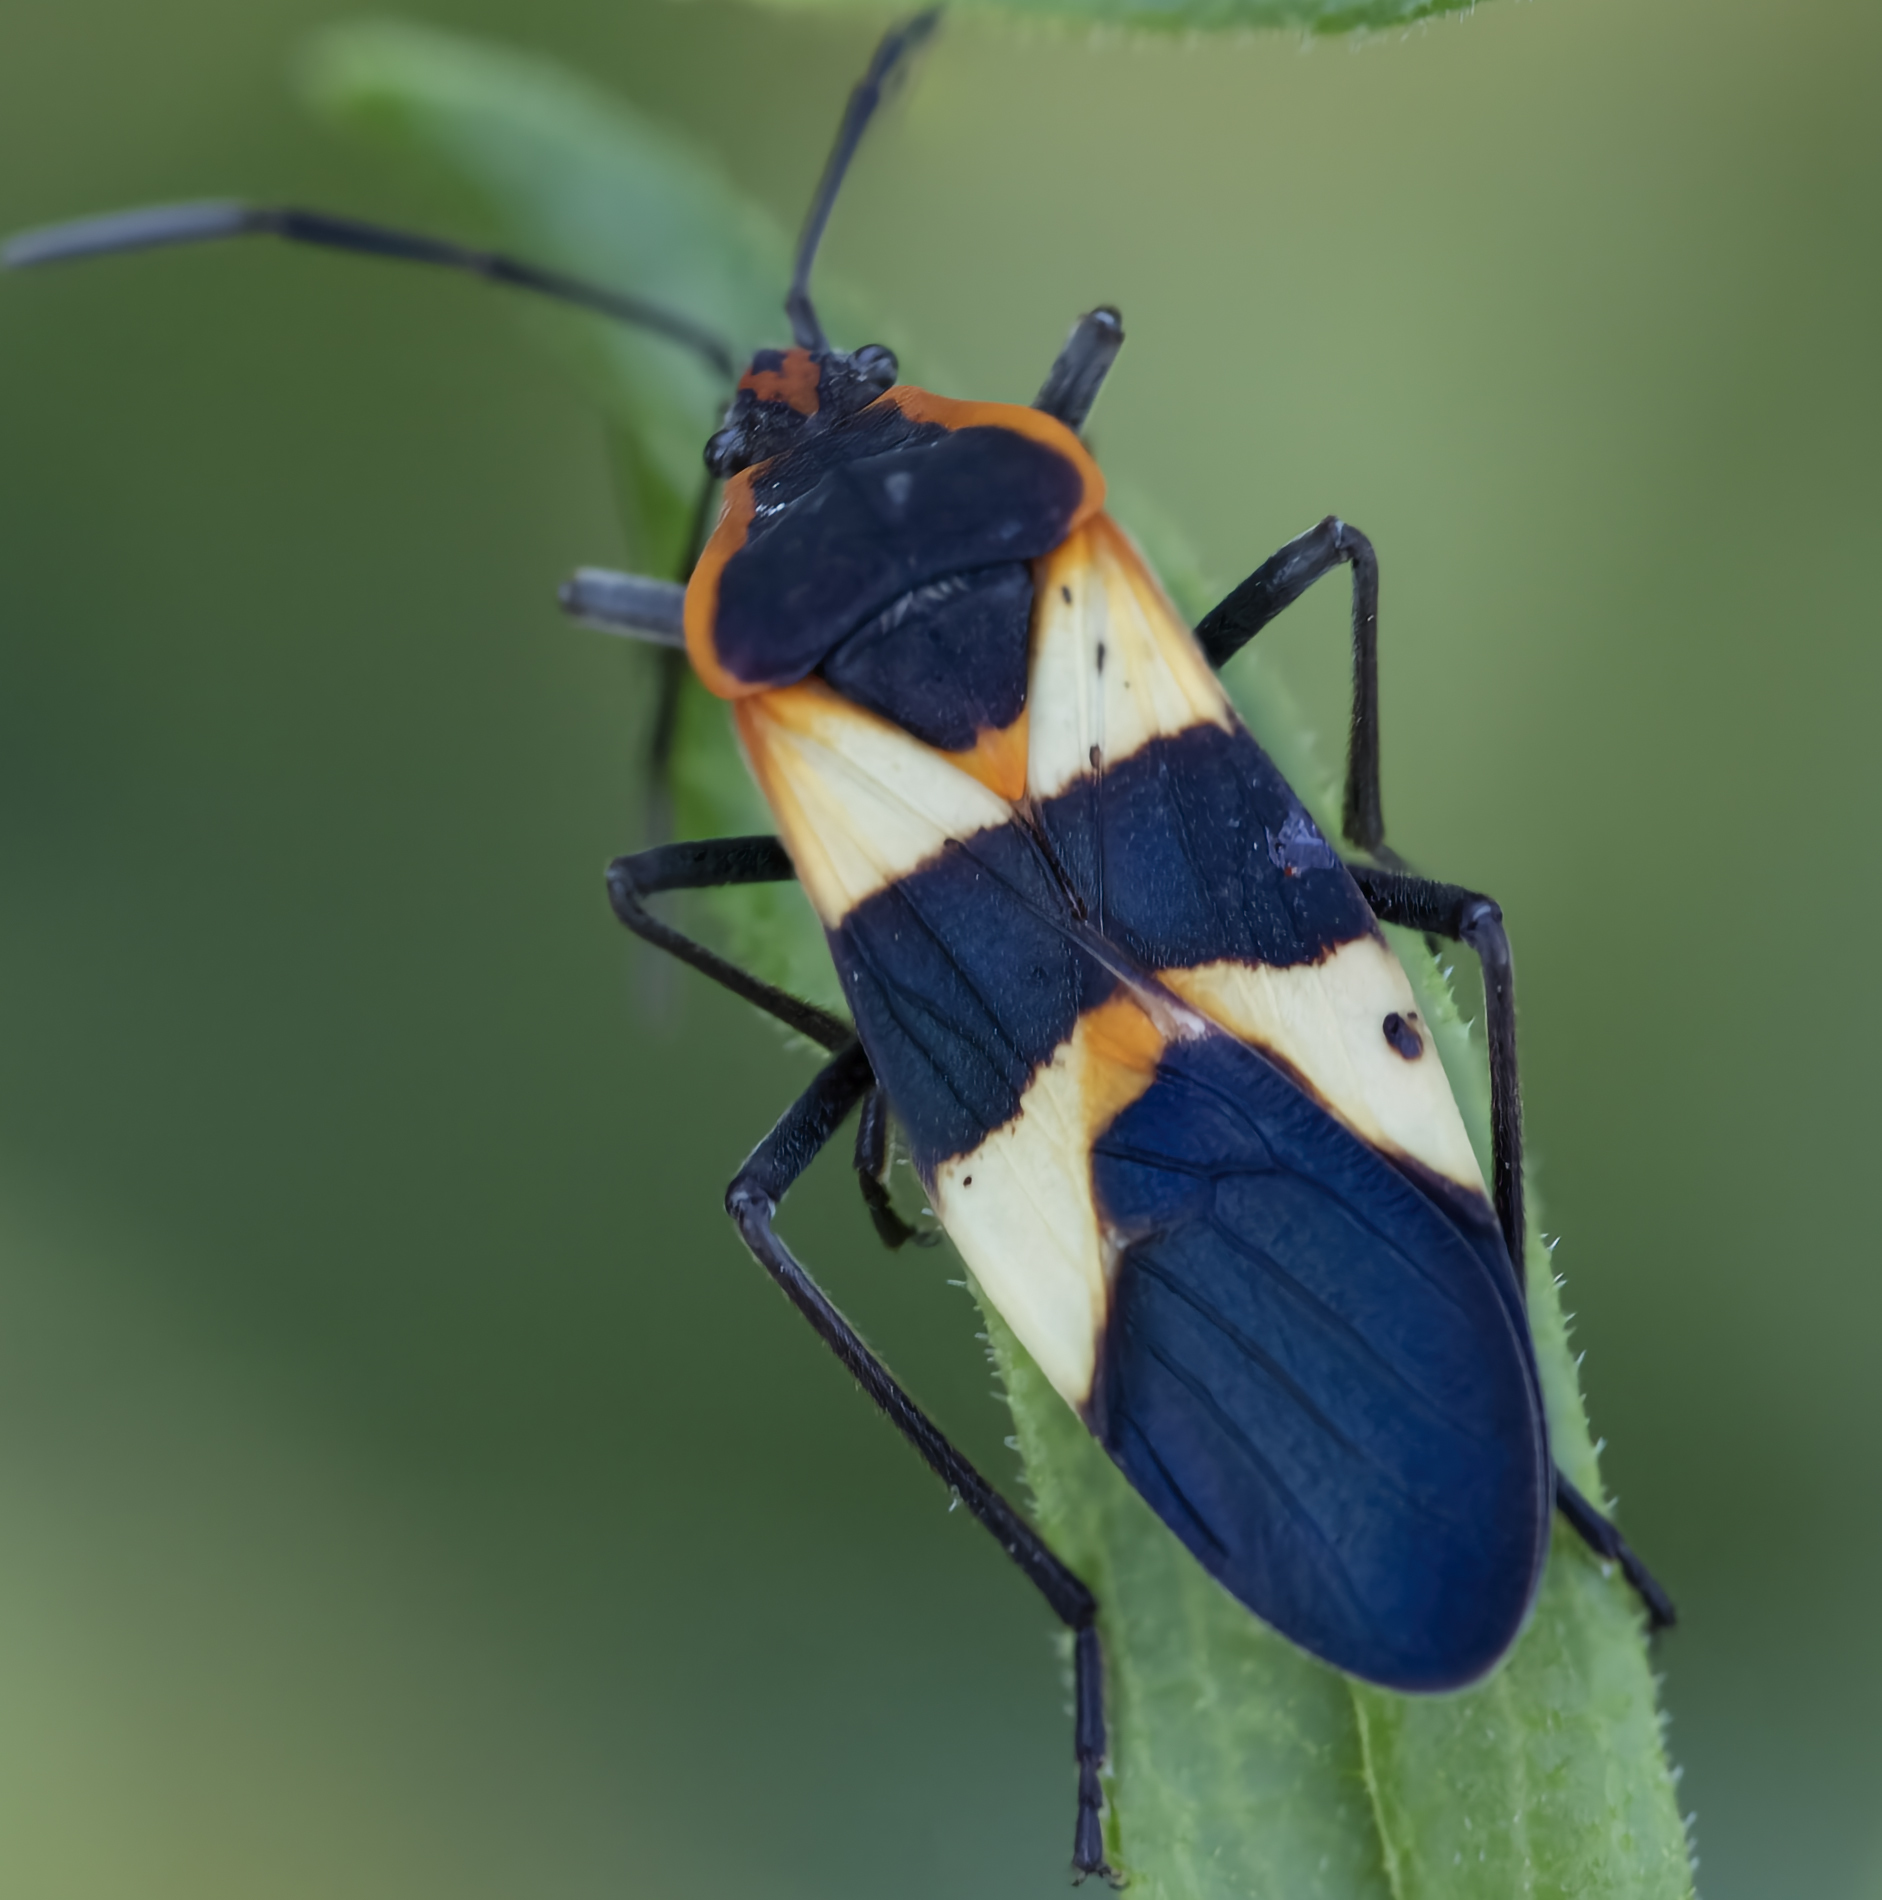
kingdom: Animalia
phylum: Arthropoda
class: Insecta
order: Hemiptera
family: Lygaeidae
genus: Oncopeltus
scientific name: Oncopeltus fasciatus
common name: Large milkweed bug
